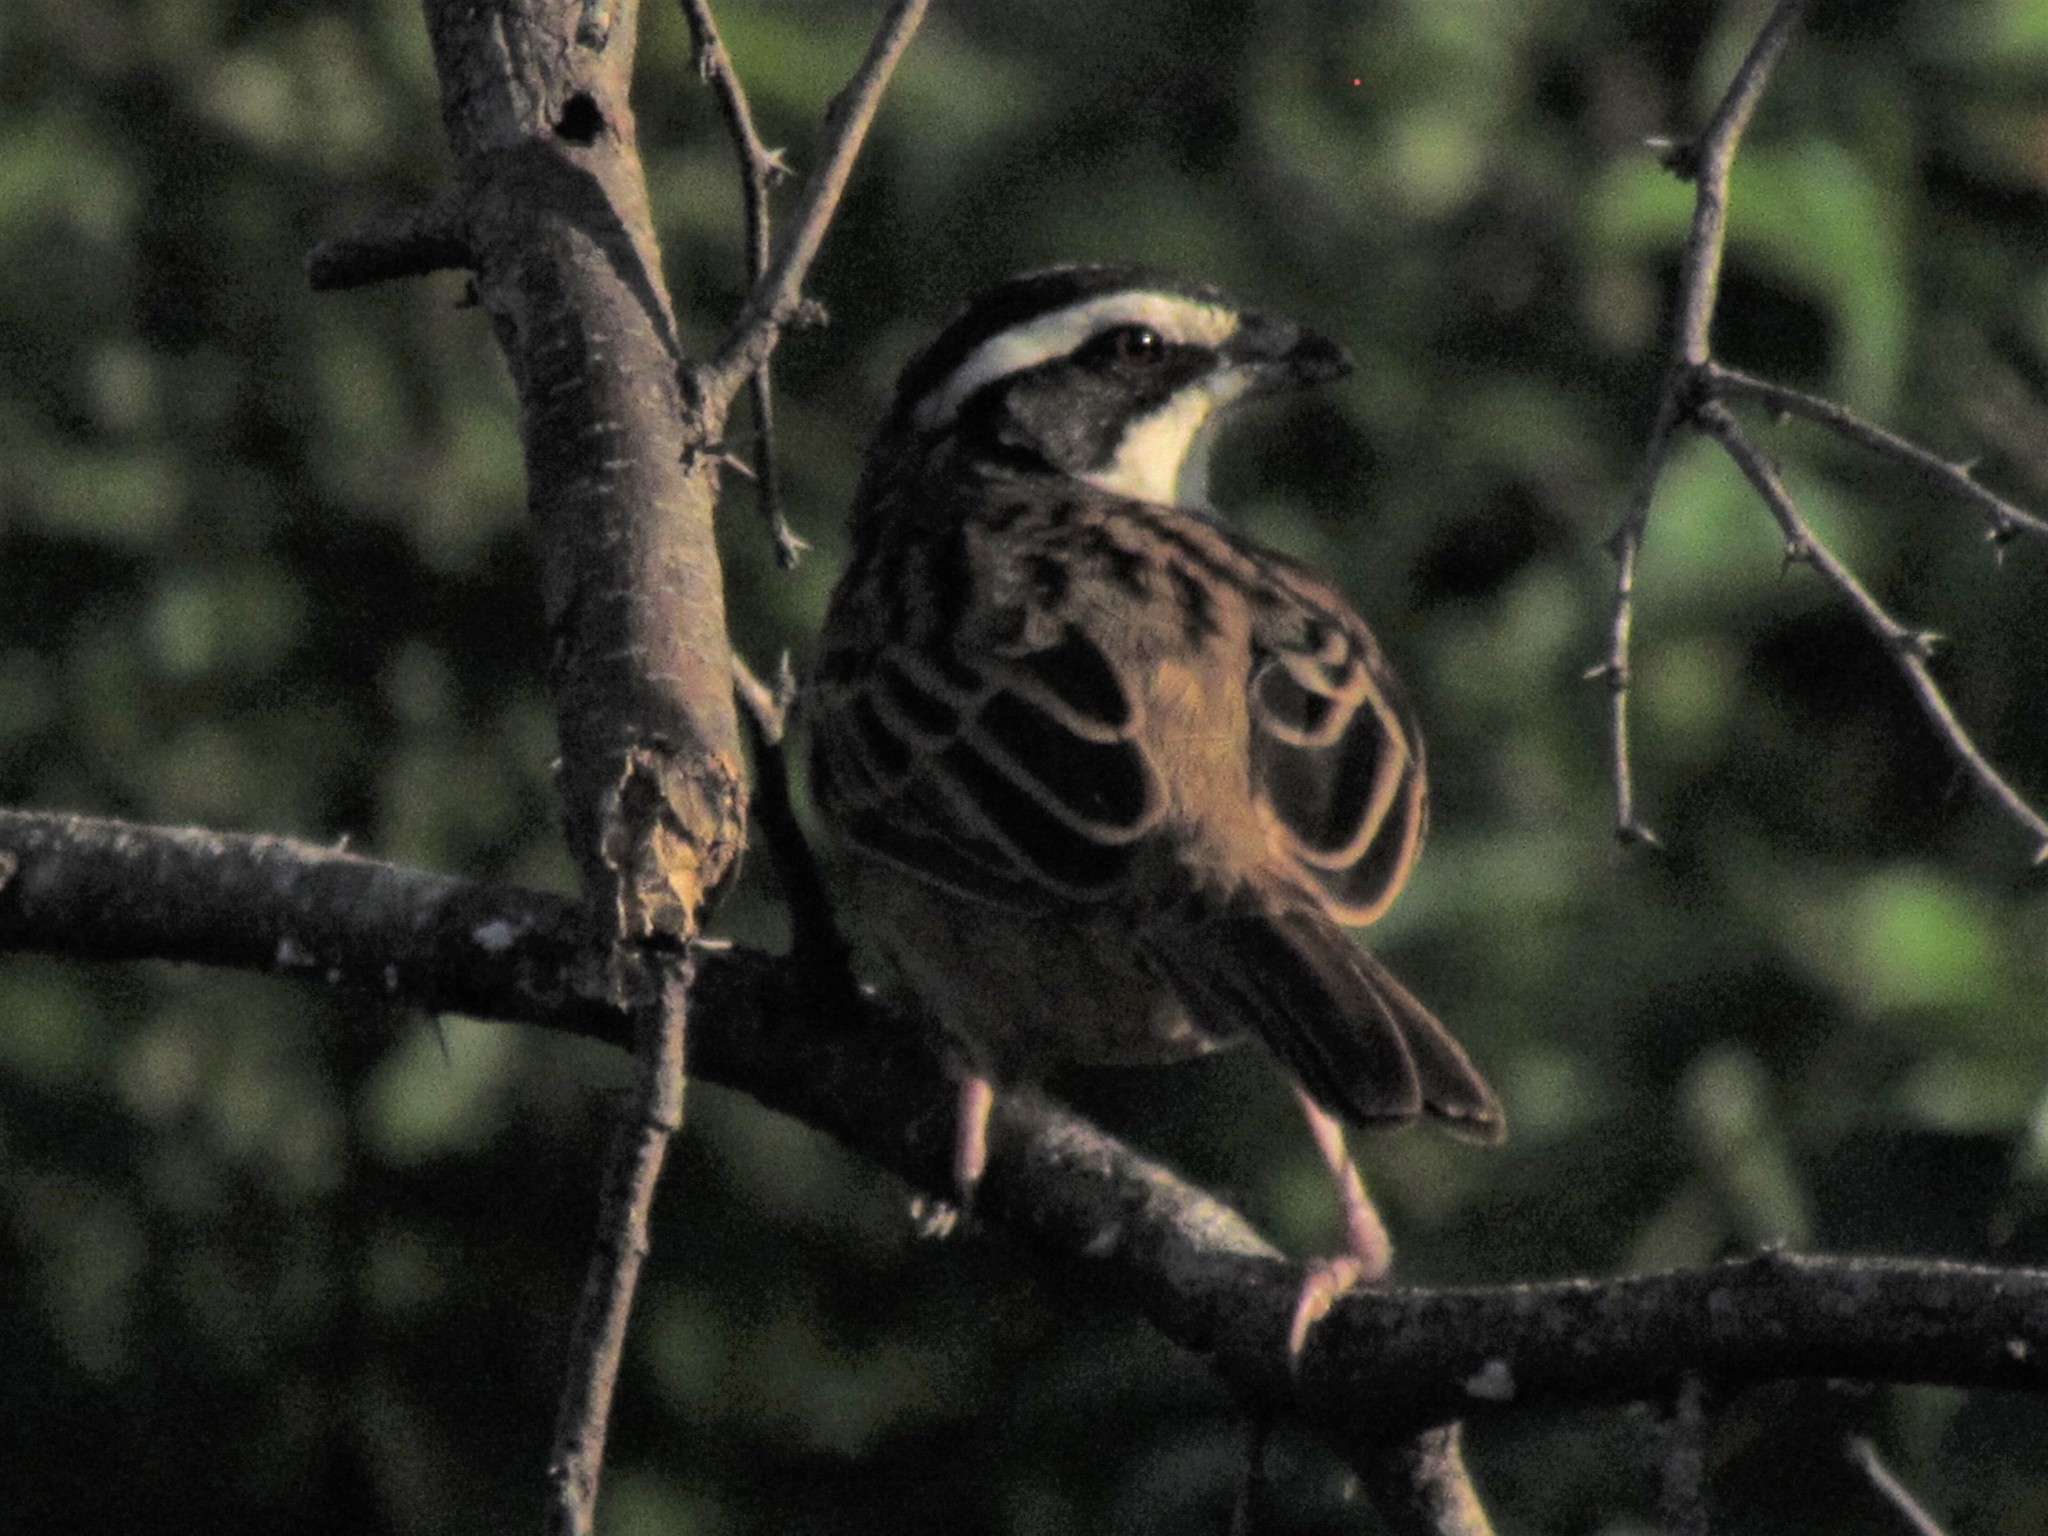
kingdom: Animalia
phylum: Chordata
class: Aves
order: Passeriformes
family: Passerellidae
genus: Peucaea
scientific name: Peucaea ruficauda
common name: Stripe-headed sparrow
